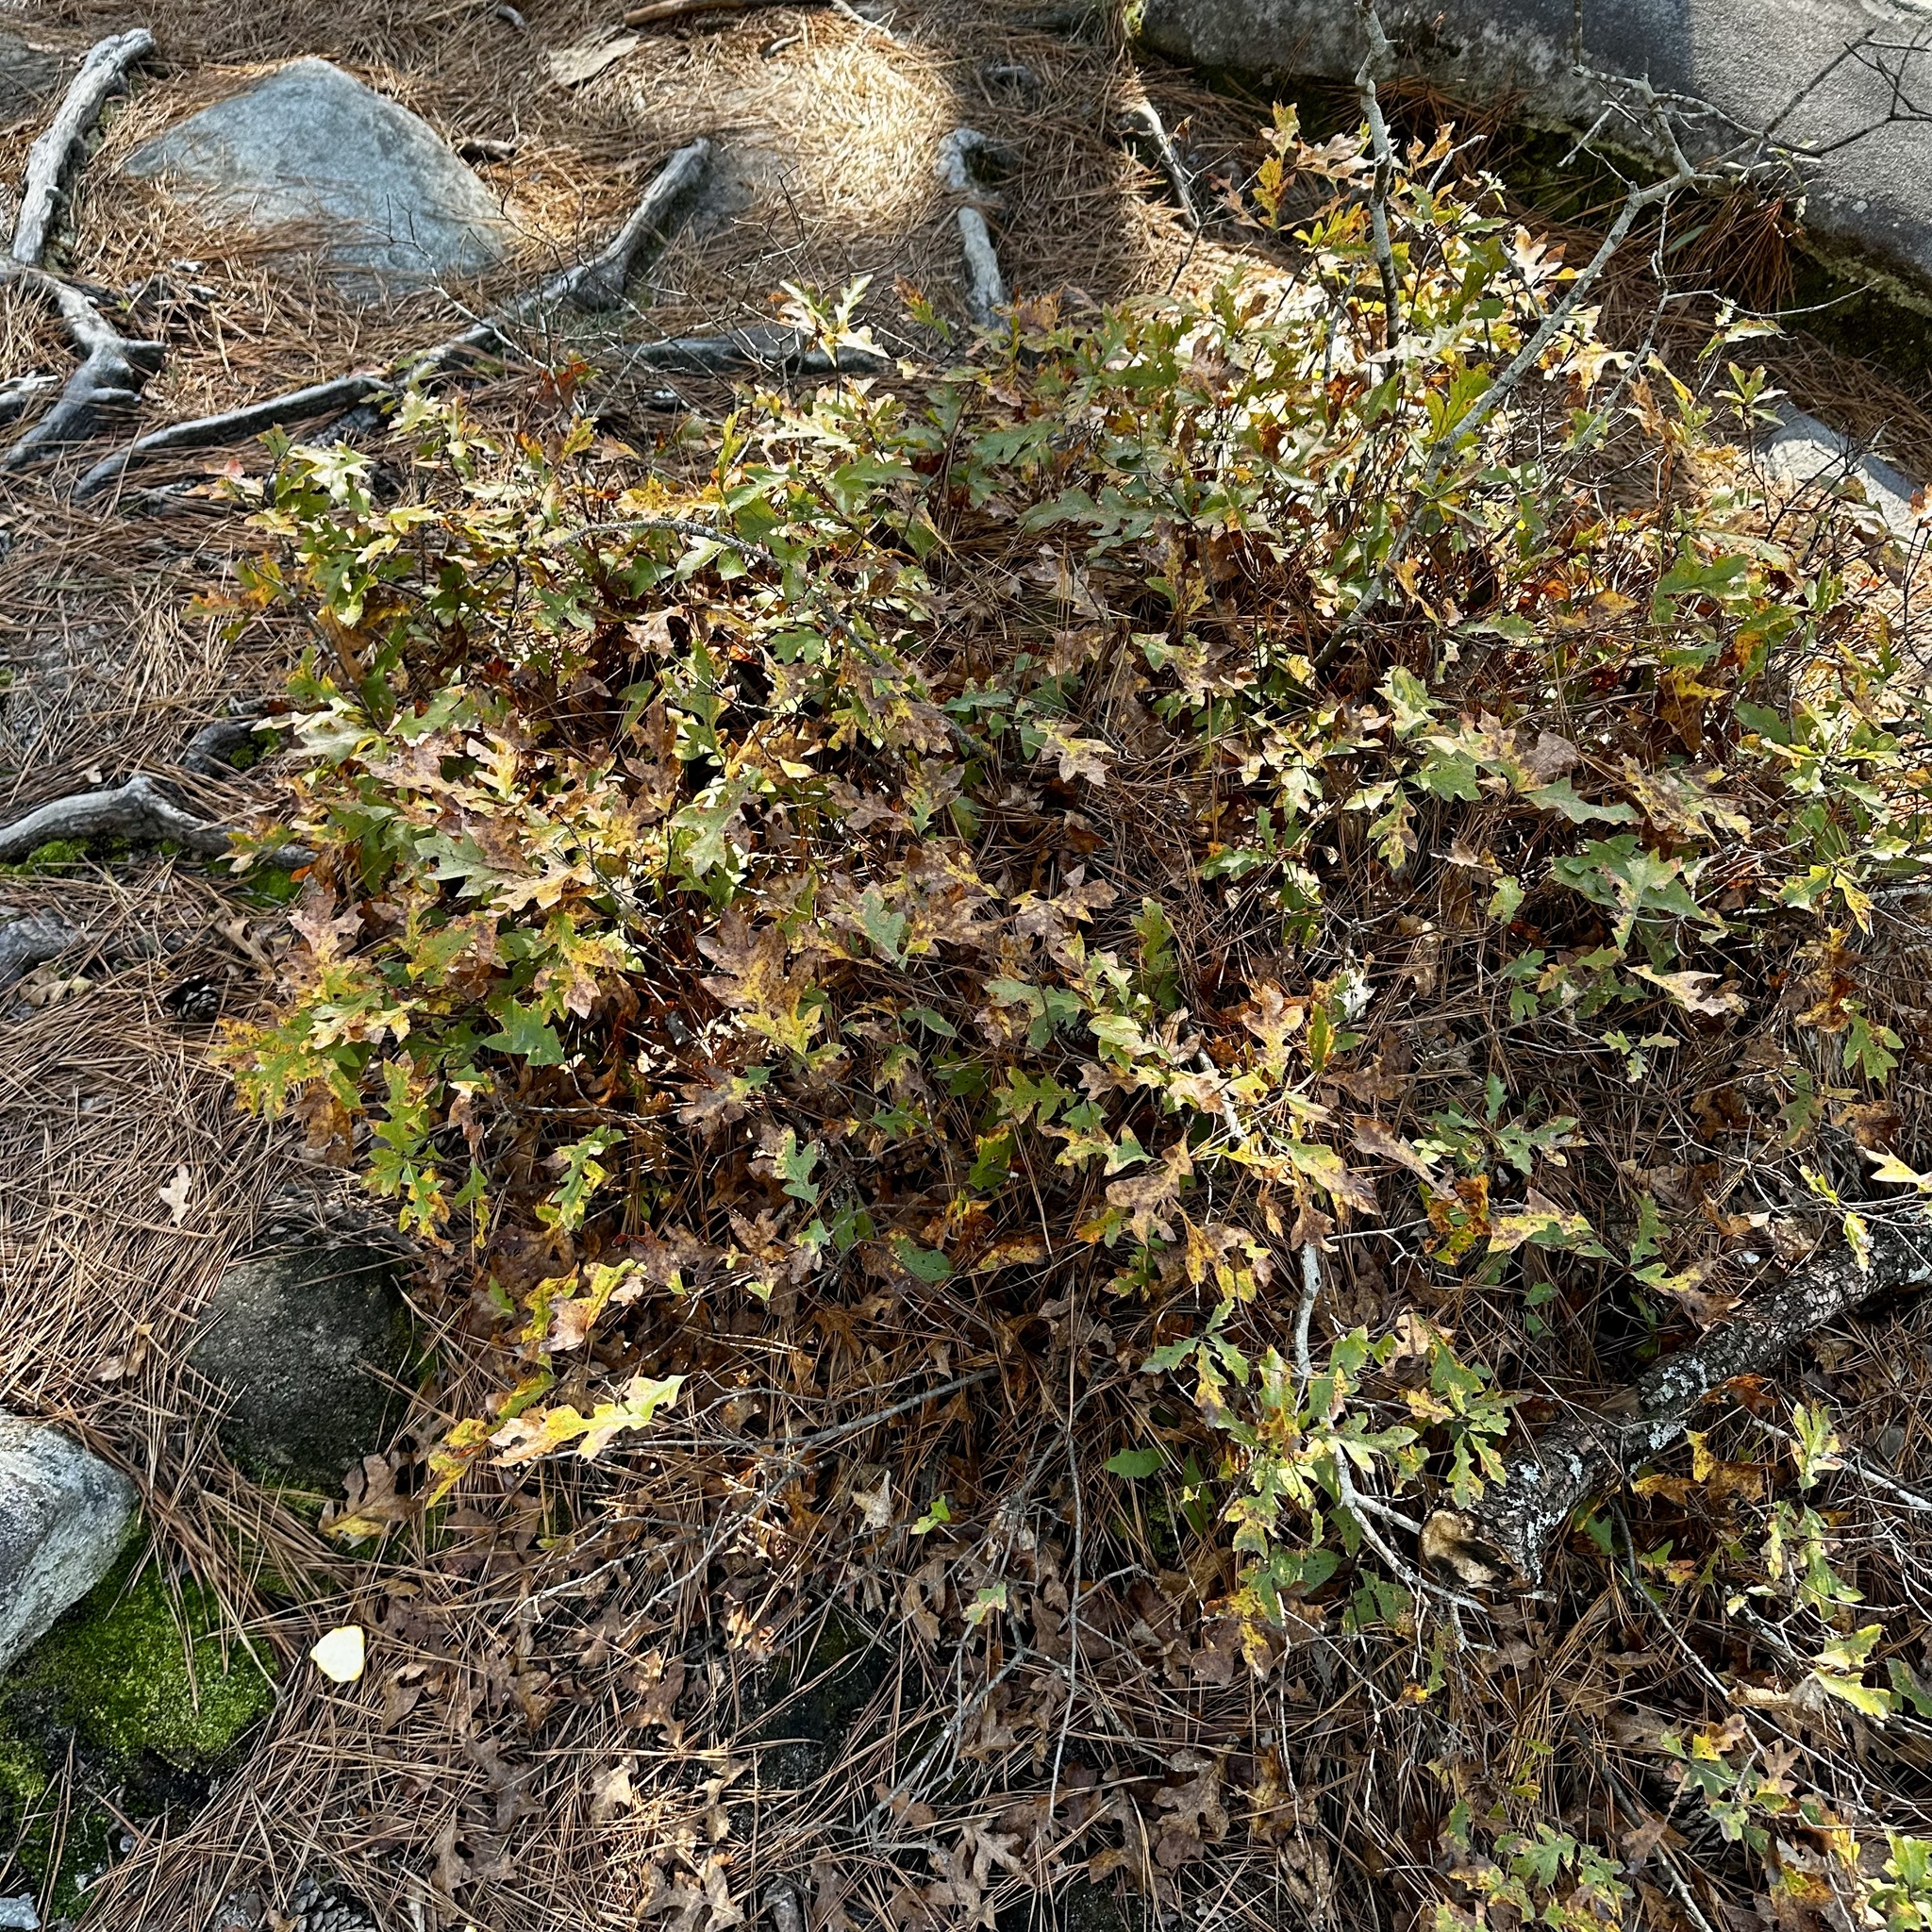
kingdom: Plantae
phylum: Tracheophyta
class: Magnoliopsida
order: Fagales
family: Fagaceae
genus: Quercus
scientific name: Quercus georgiana
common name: Georgia oak
